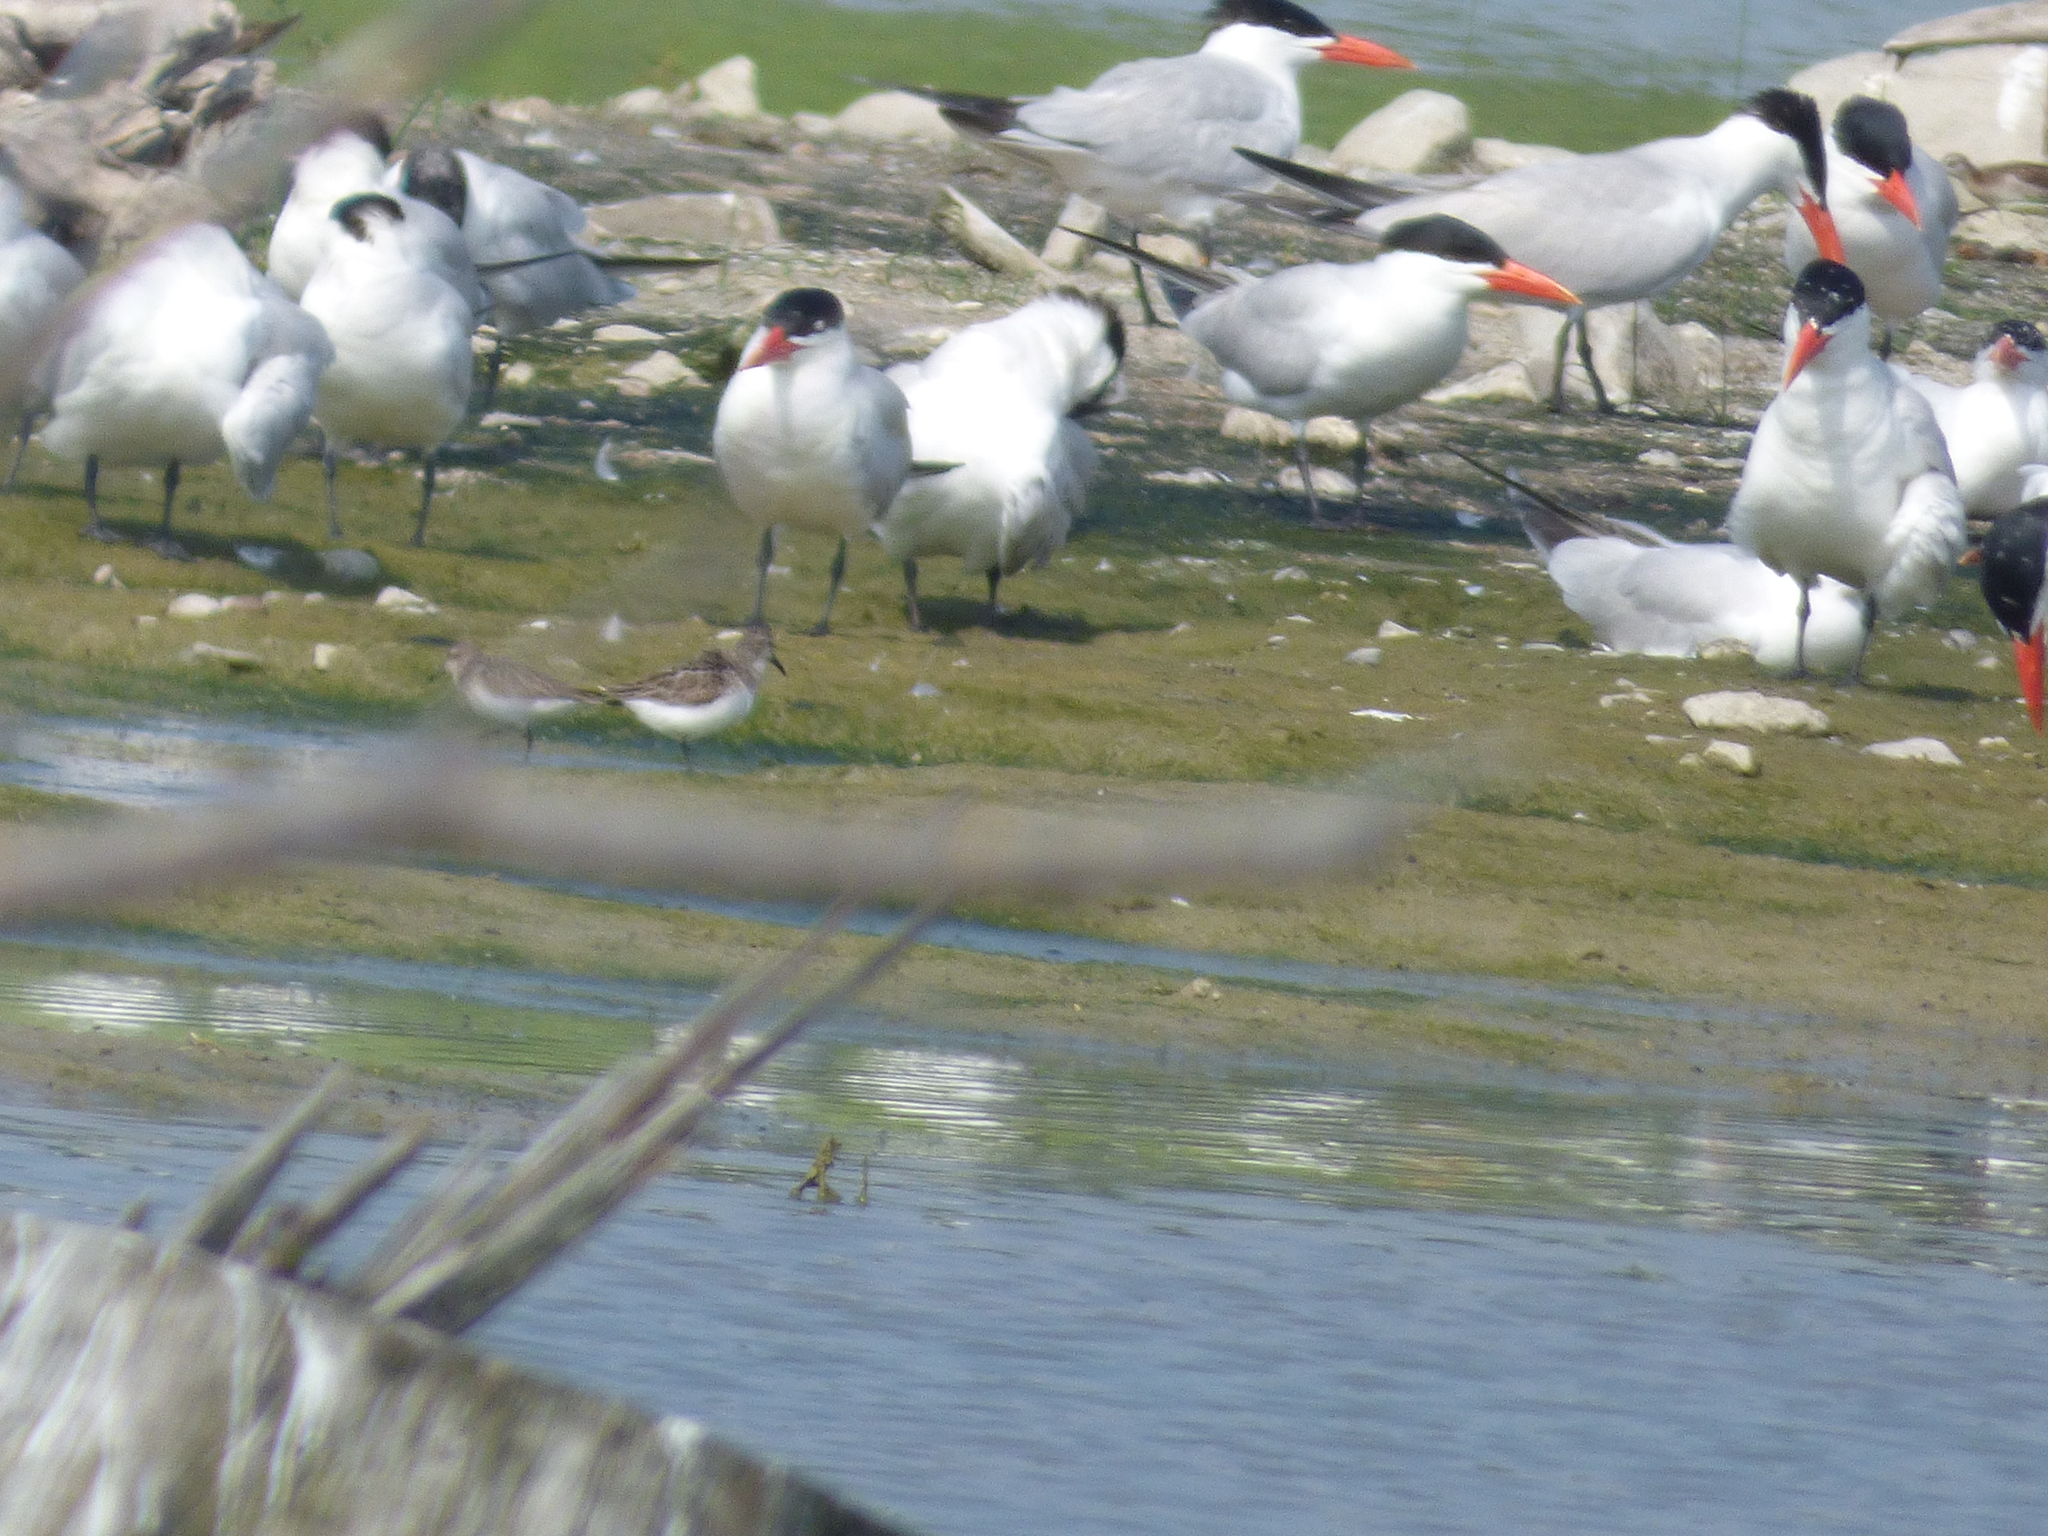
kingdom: Animalia
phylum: Chordata
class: Aves
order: Charadriiformes
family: Scolopacidae
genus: Calidris
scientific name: Calidris pusilla
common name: Semipalmated sandpiper
